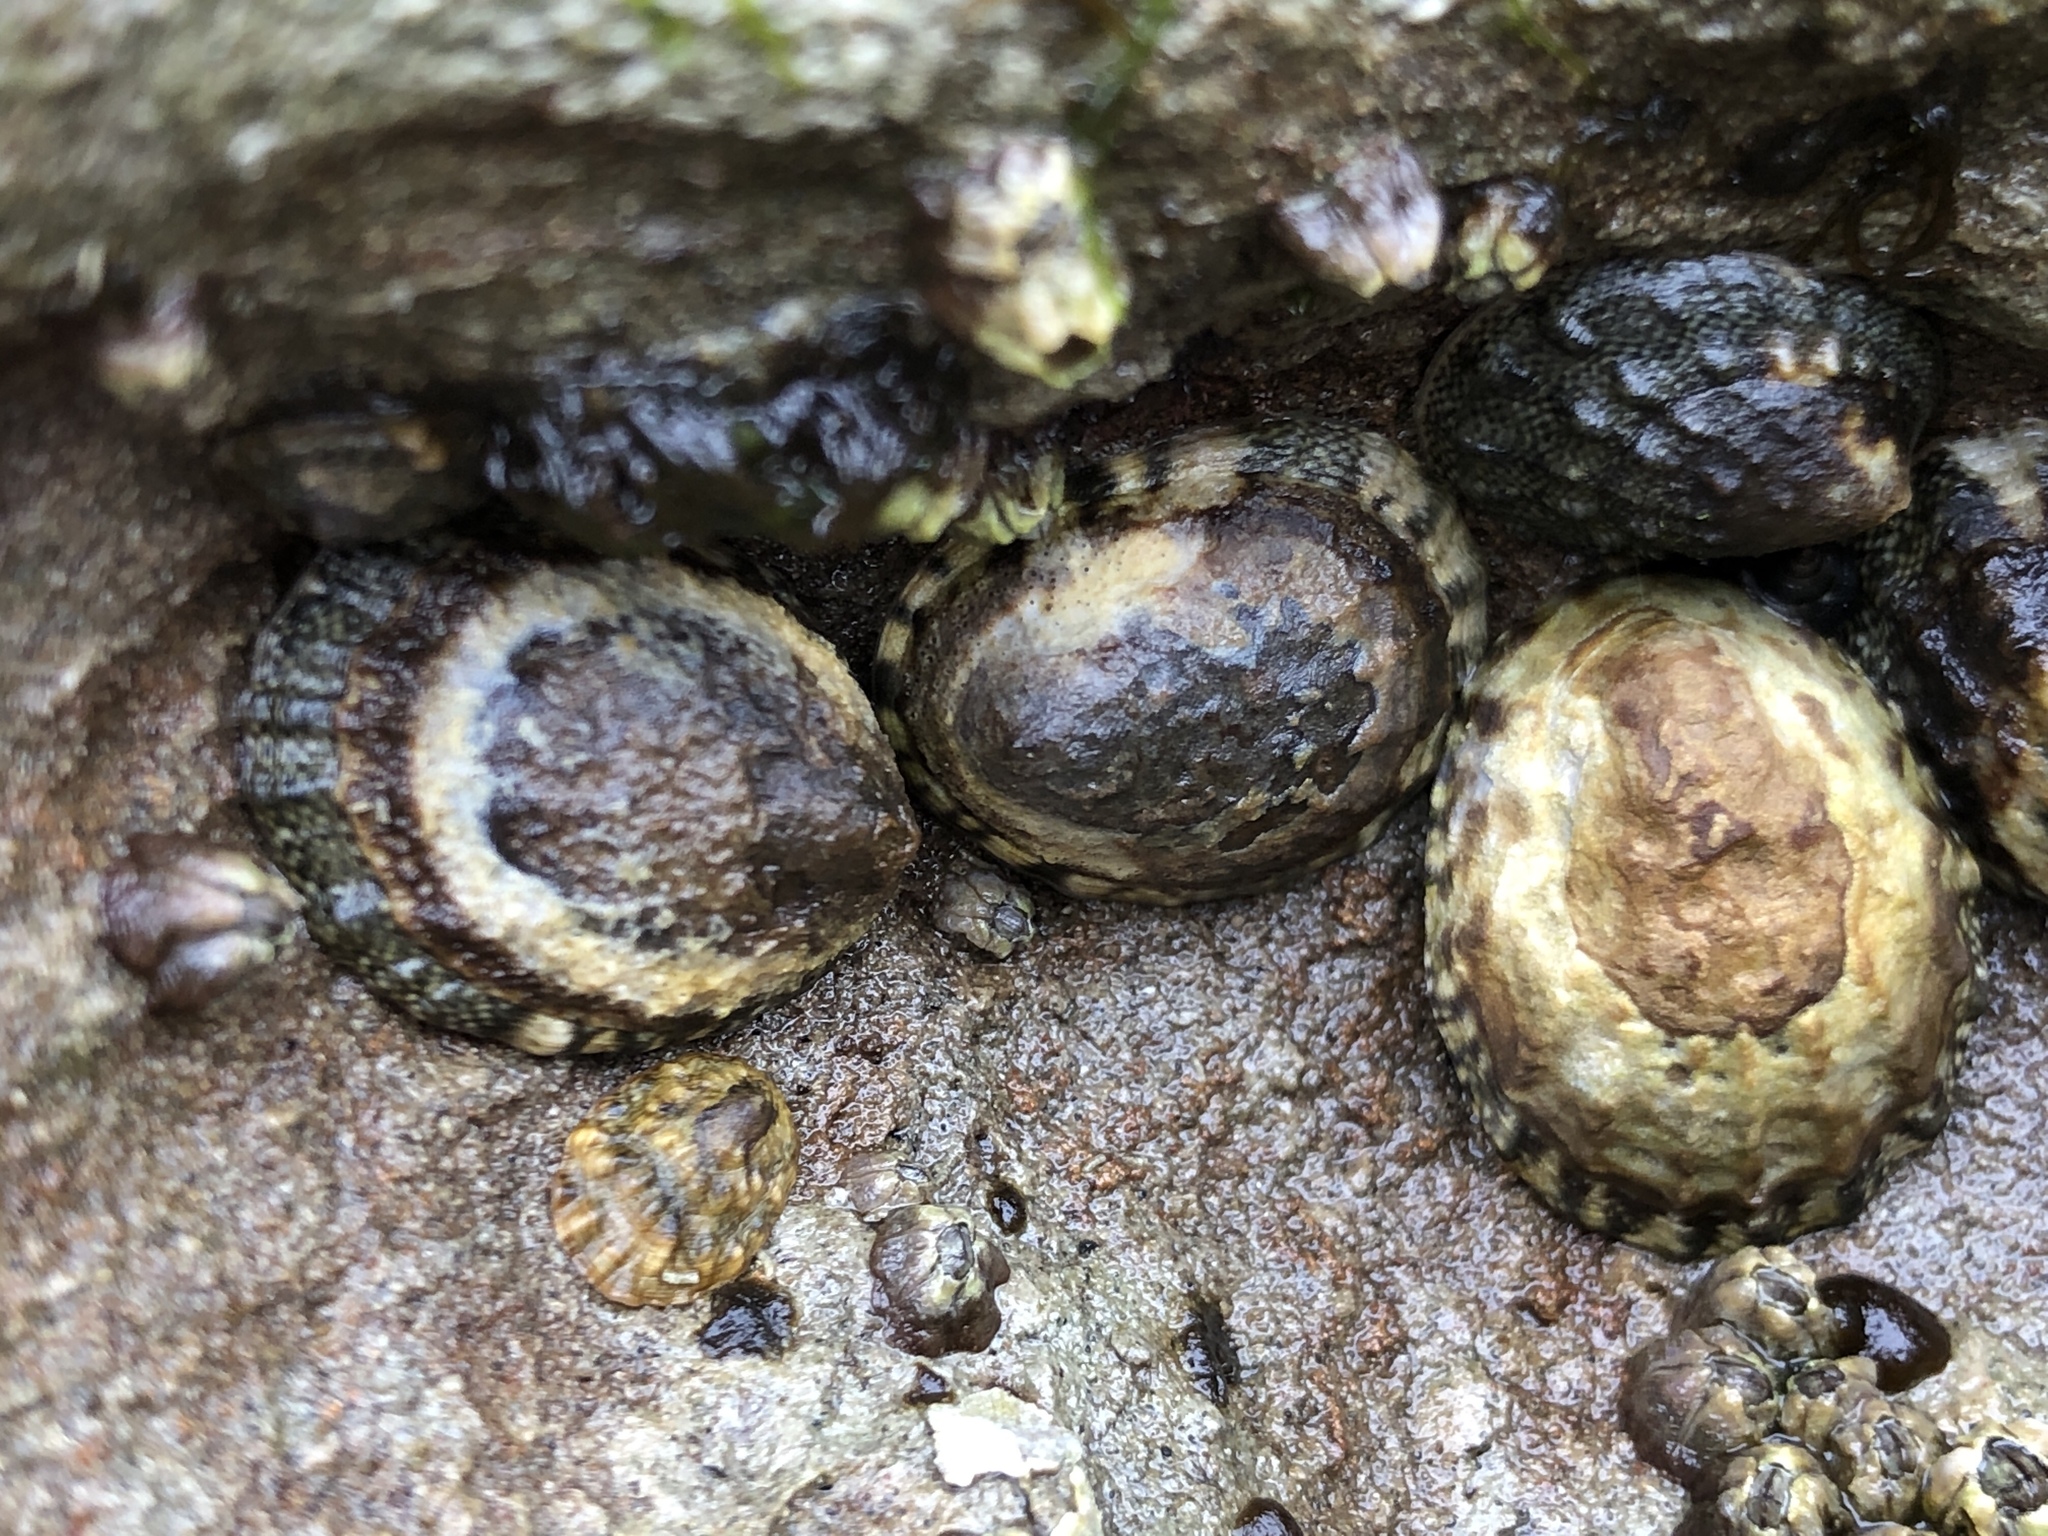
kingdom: Animalia
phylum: Mollusca
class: Gastropoda
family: Lottiidae
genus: Lottia
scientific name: Lottia digitalis
